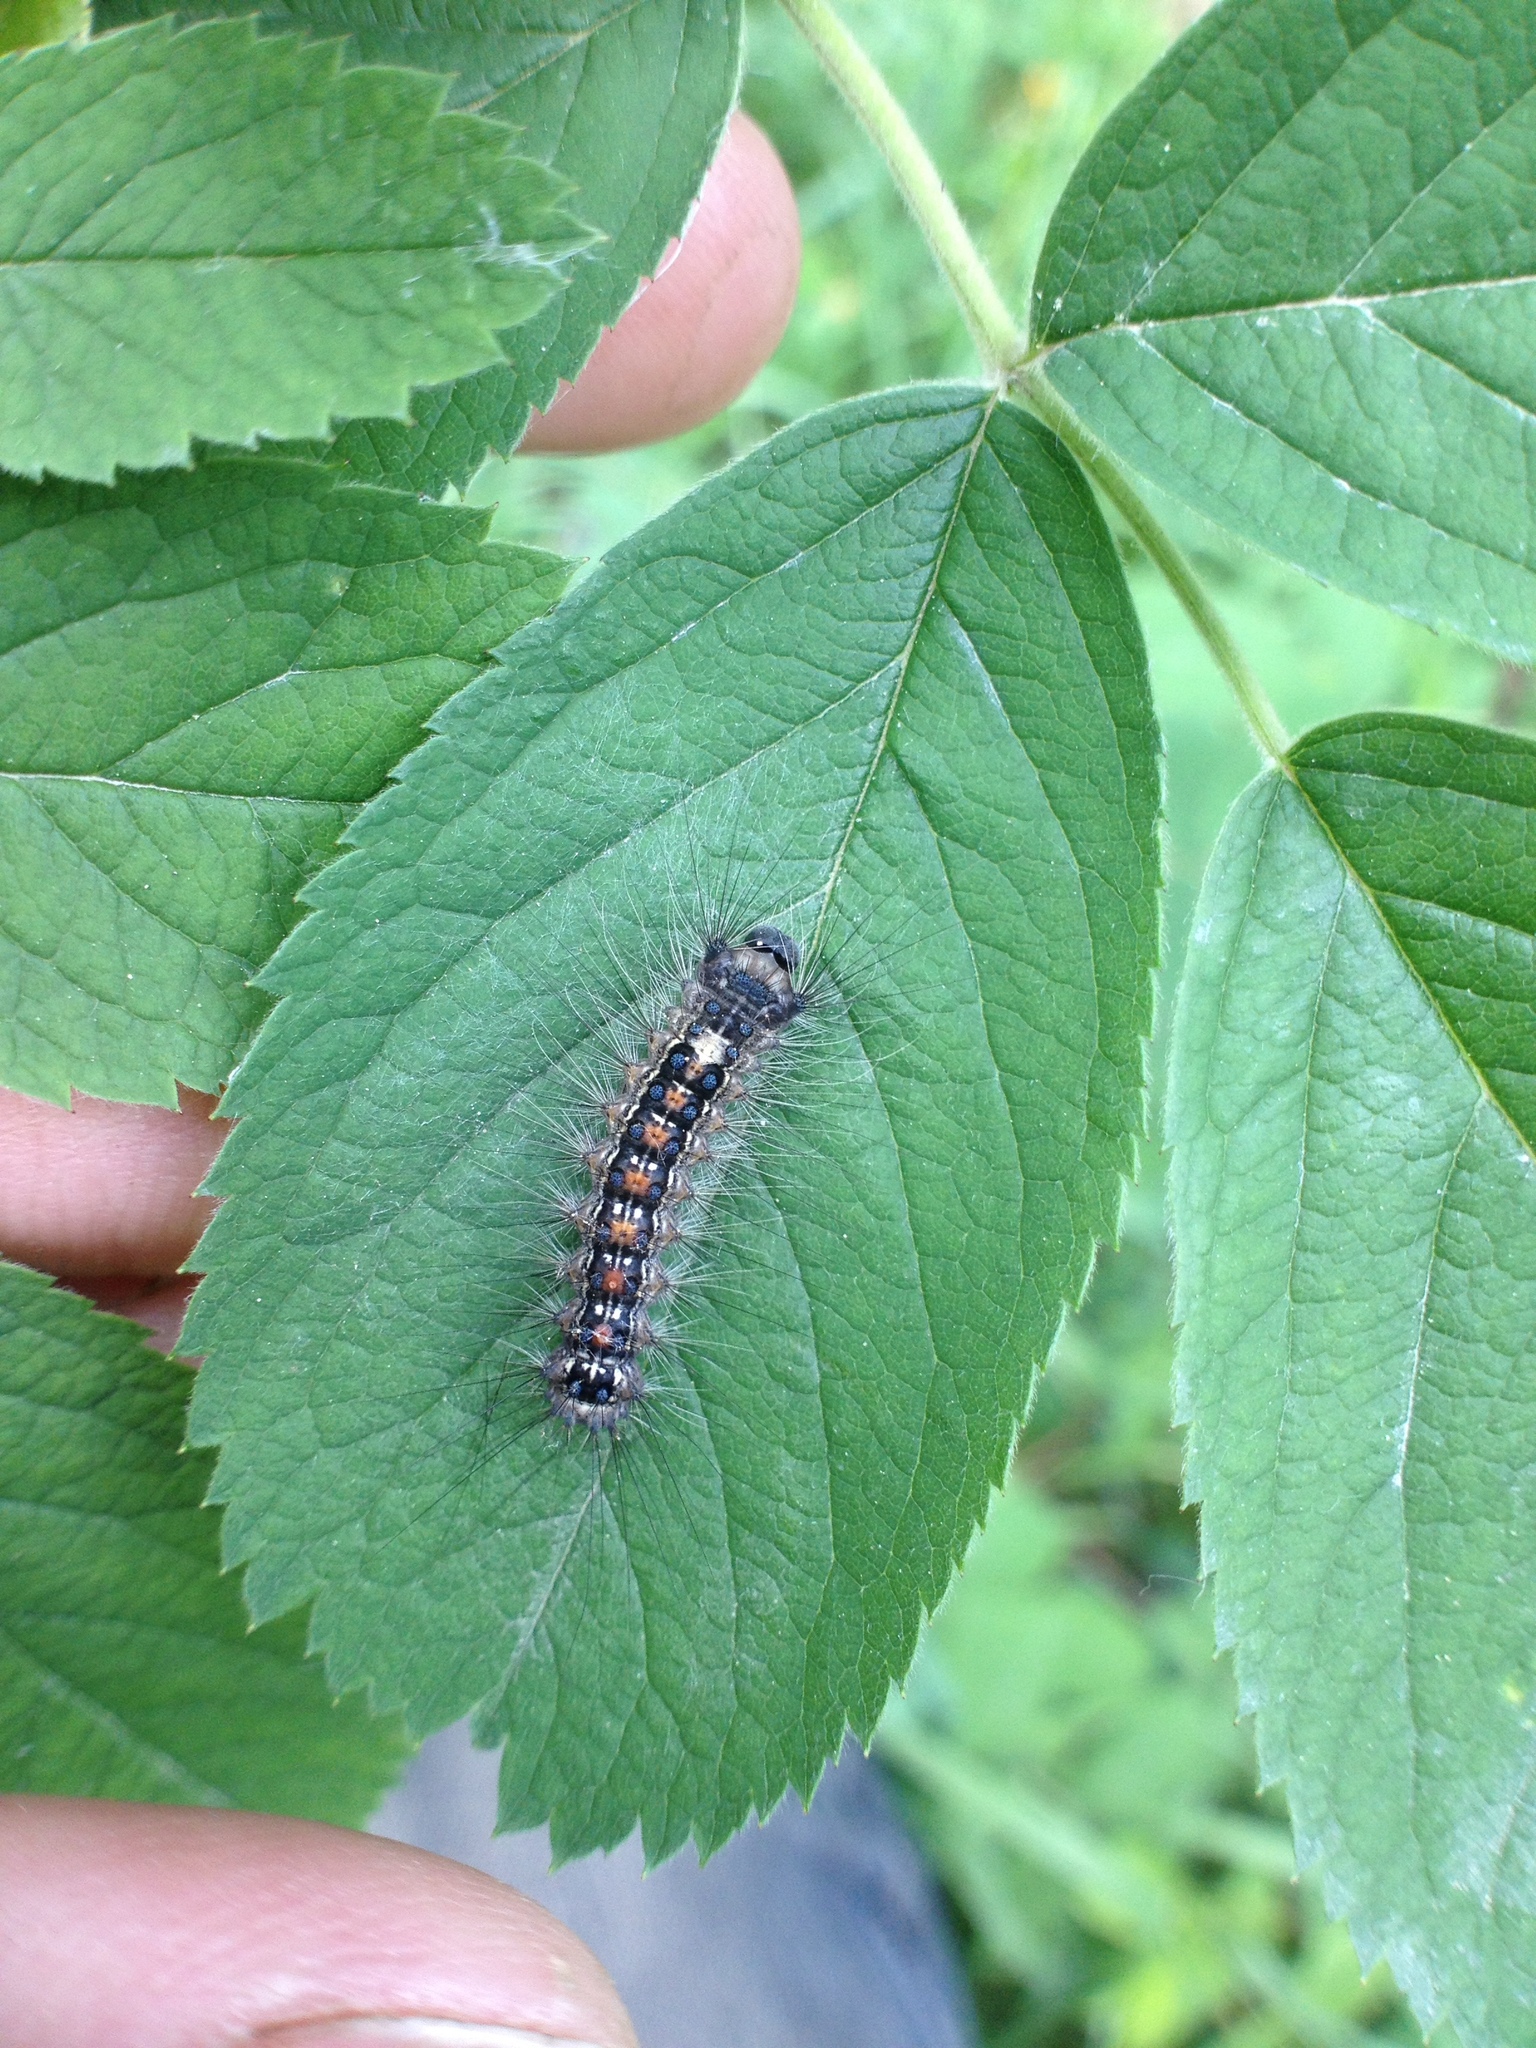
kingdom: Animalia
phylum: Arthropoda
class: Insecta
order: Lepidoptera
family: Erebidae
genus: Lymantria
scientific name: Lymantria dispar
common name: Gypsy moth
